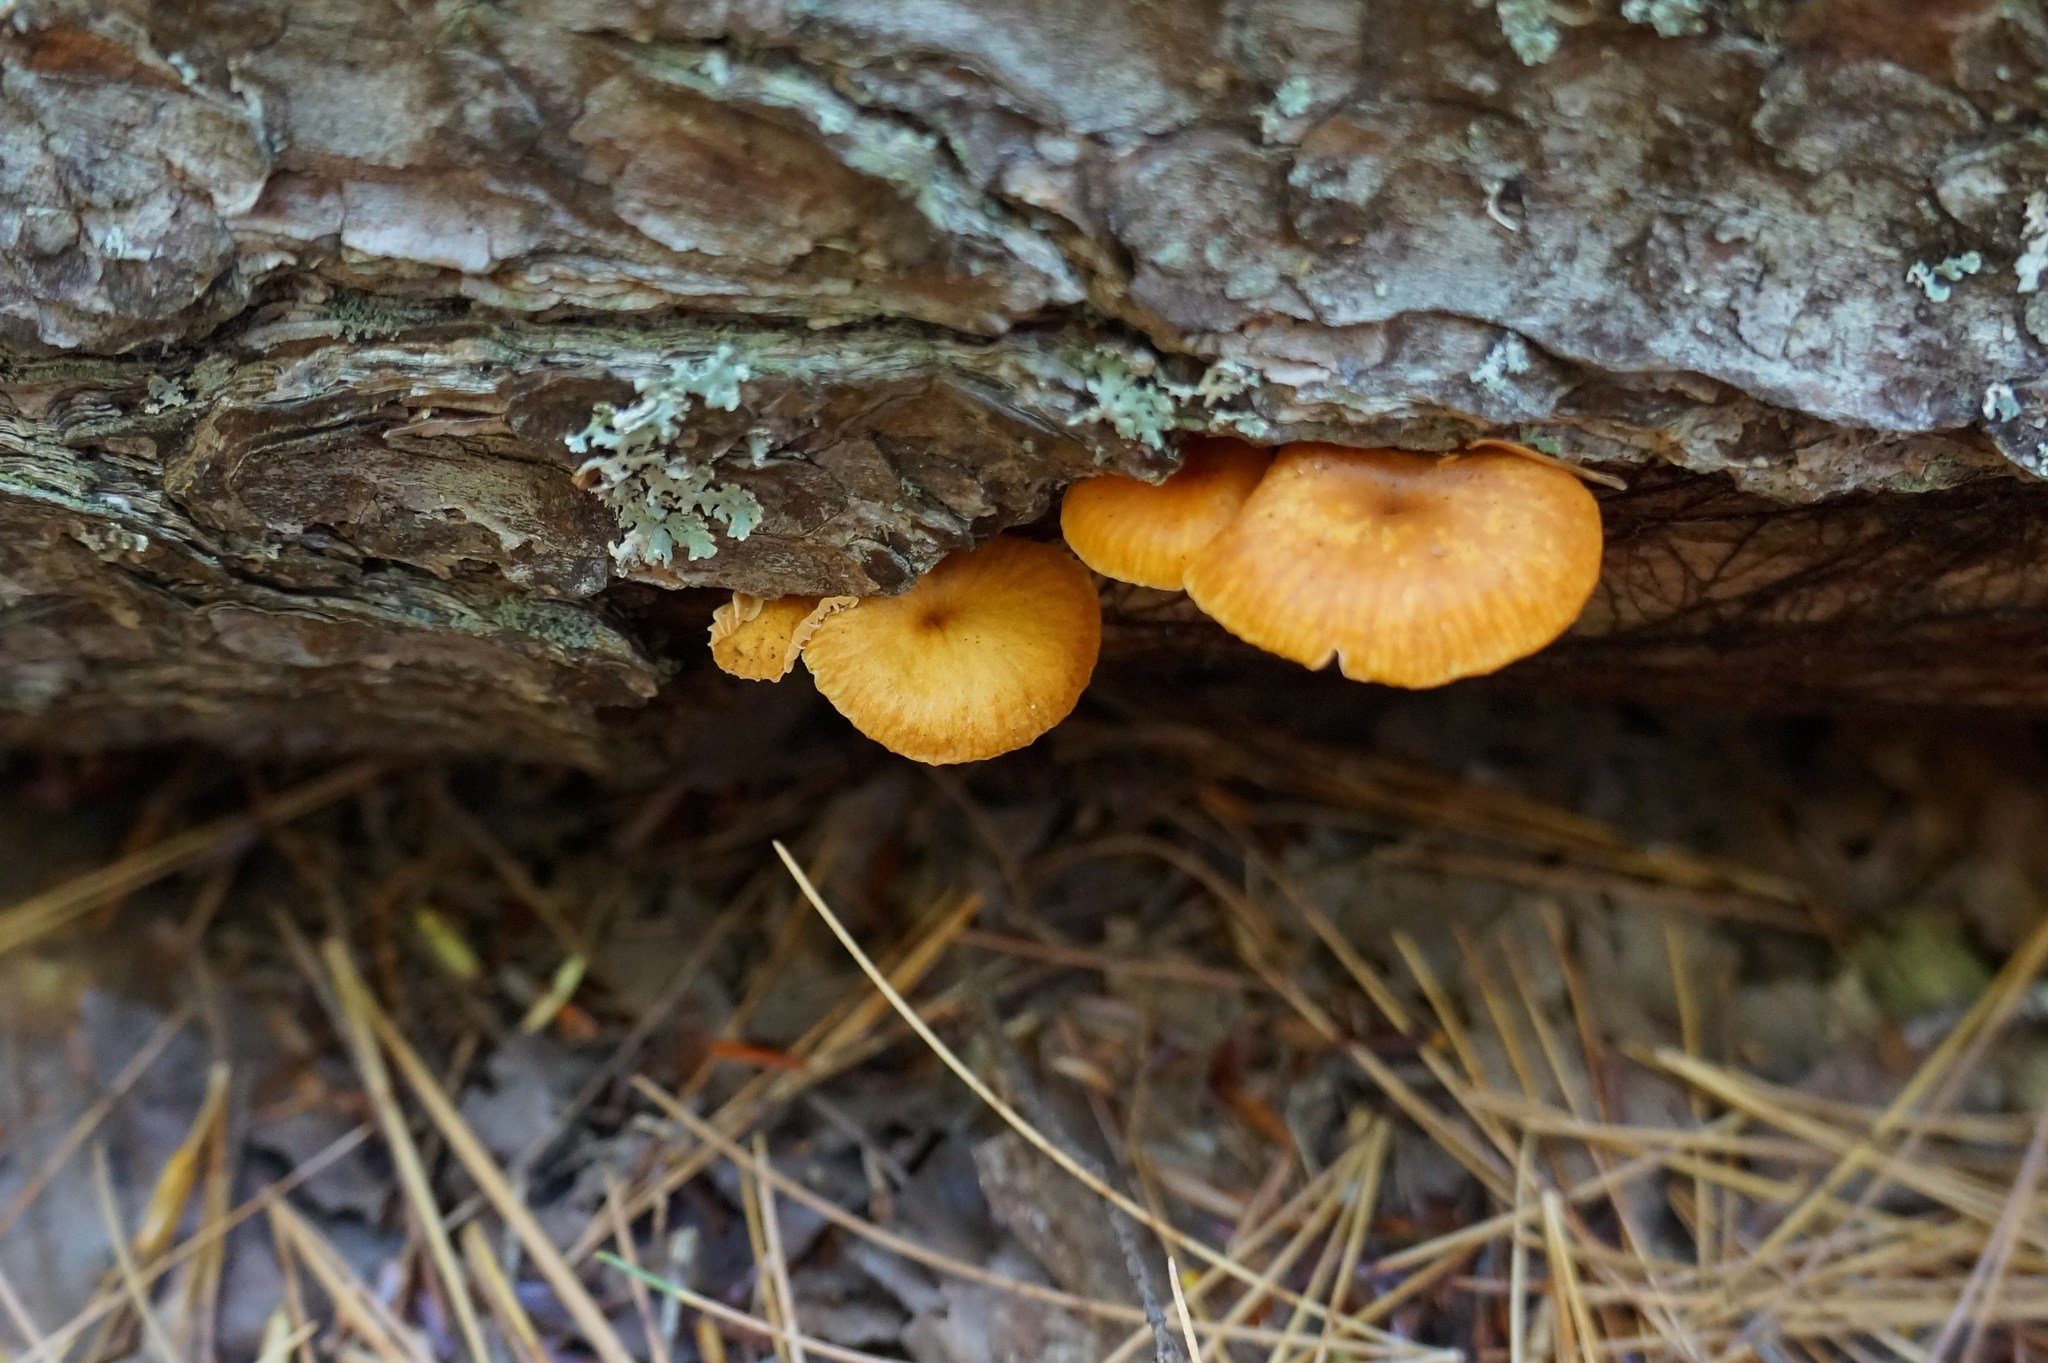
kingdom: Fungi
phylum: Basidiomycota
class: Agaricomycetes
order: Agaricales
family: Mycenaceae
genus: Xeromphalina
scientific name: Xeromphalina campanella
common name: Pinewood gingertail
